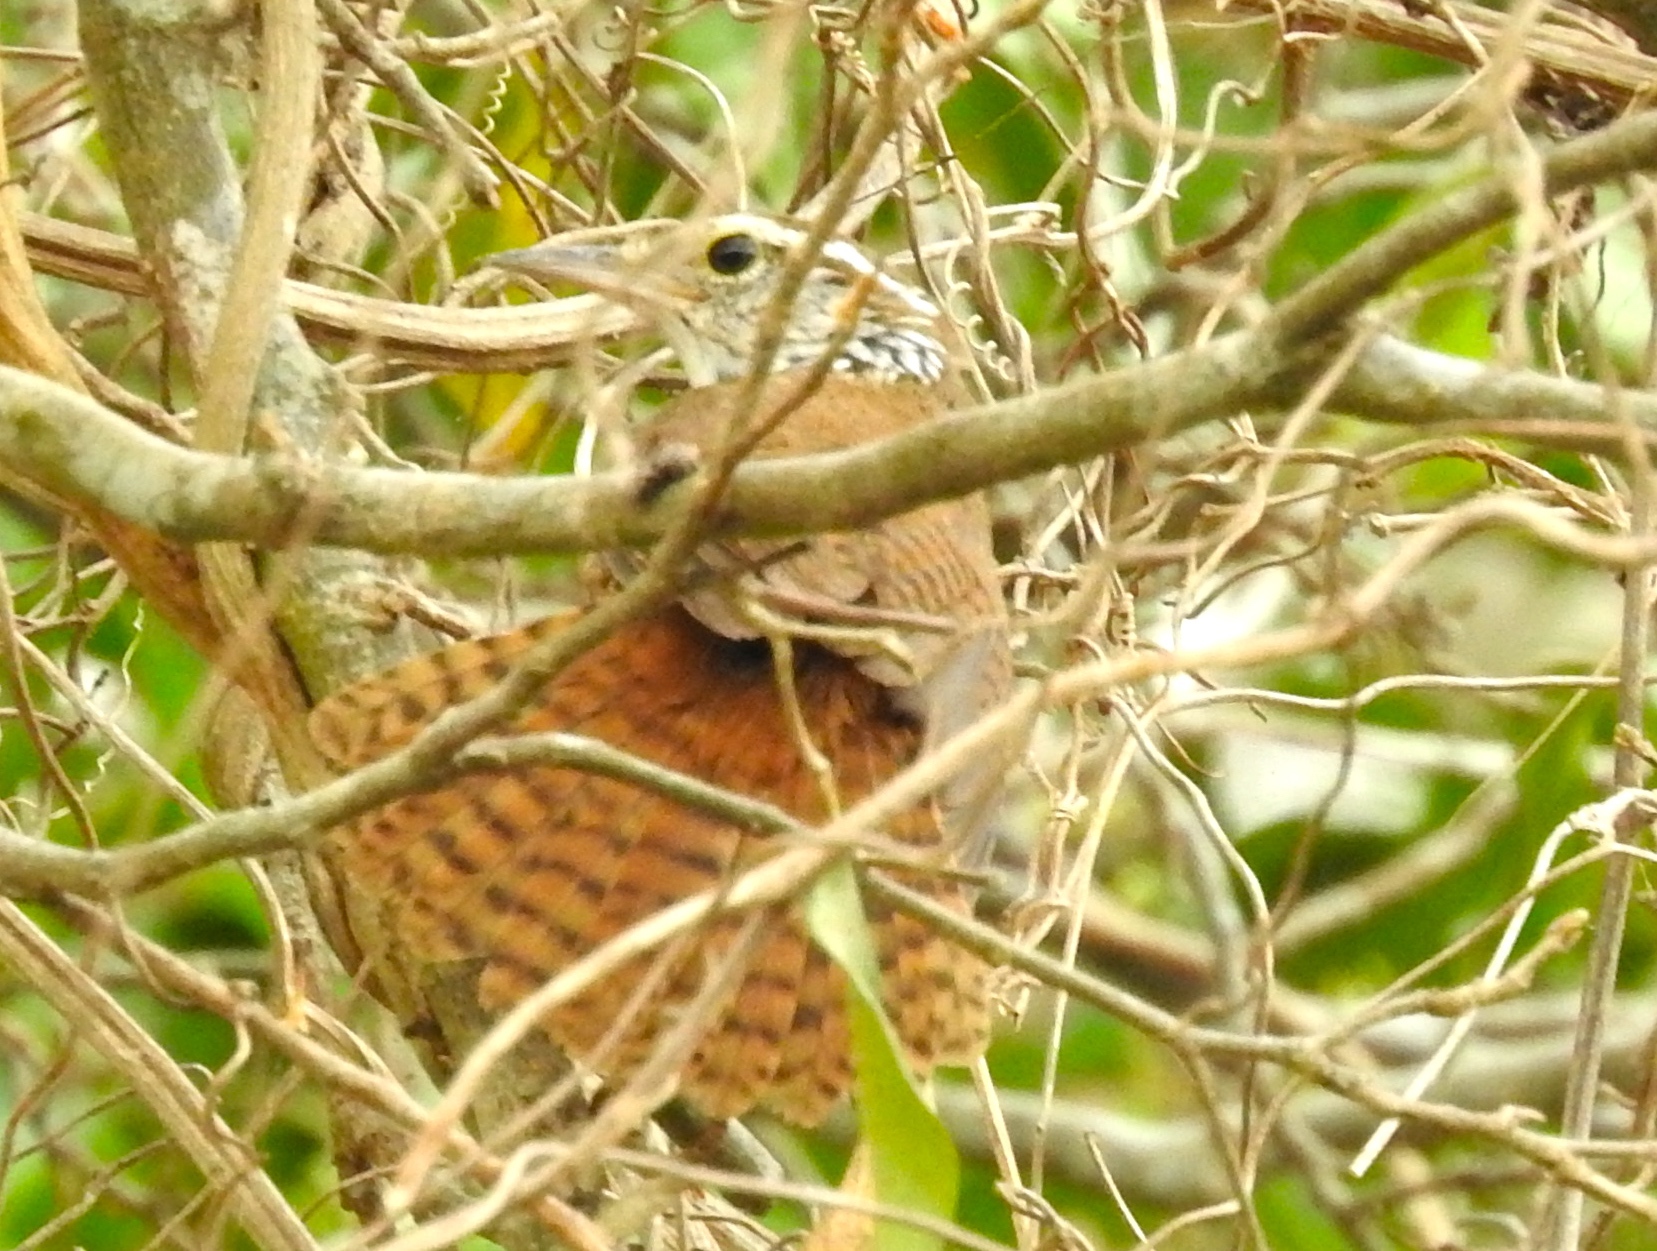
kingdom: Animalia
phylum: Chordata
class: Aves
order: Passeriformes
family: Troglodytidae
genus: Thryophilus
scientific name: Thryophilus sinaloa
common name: Sinaloa wren
